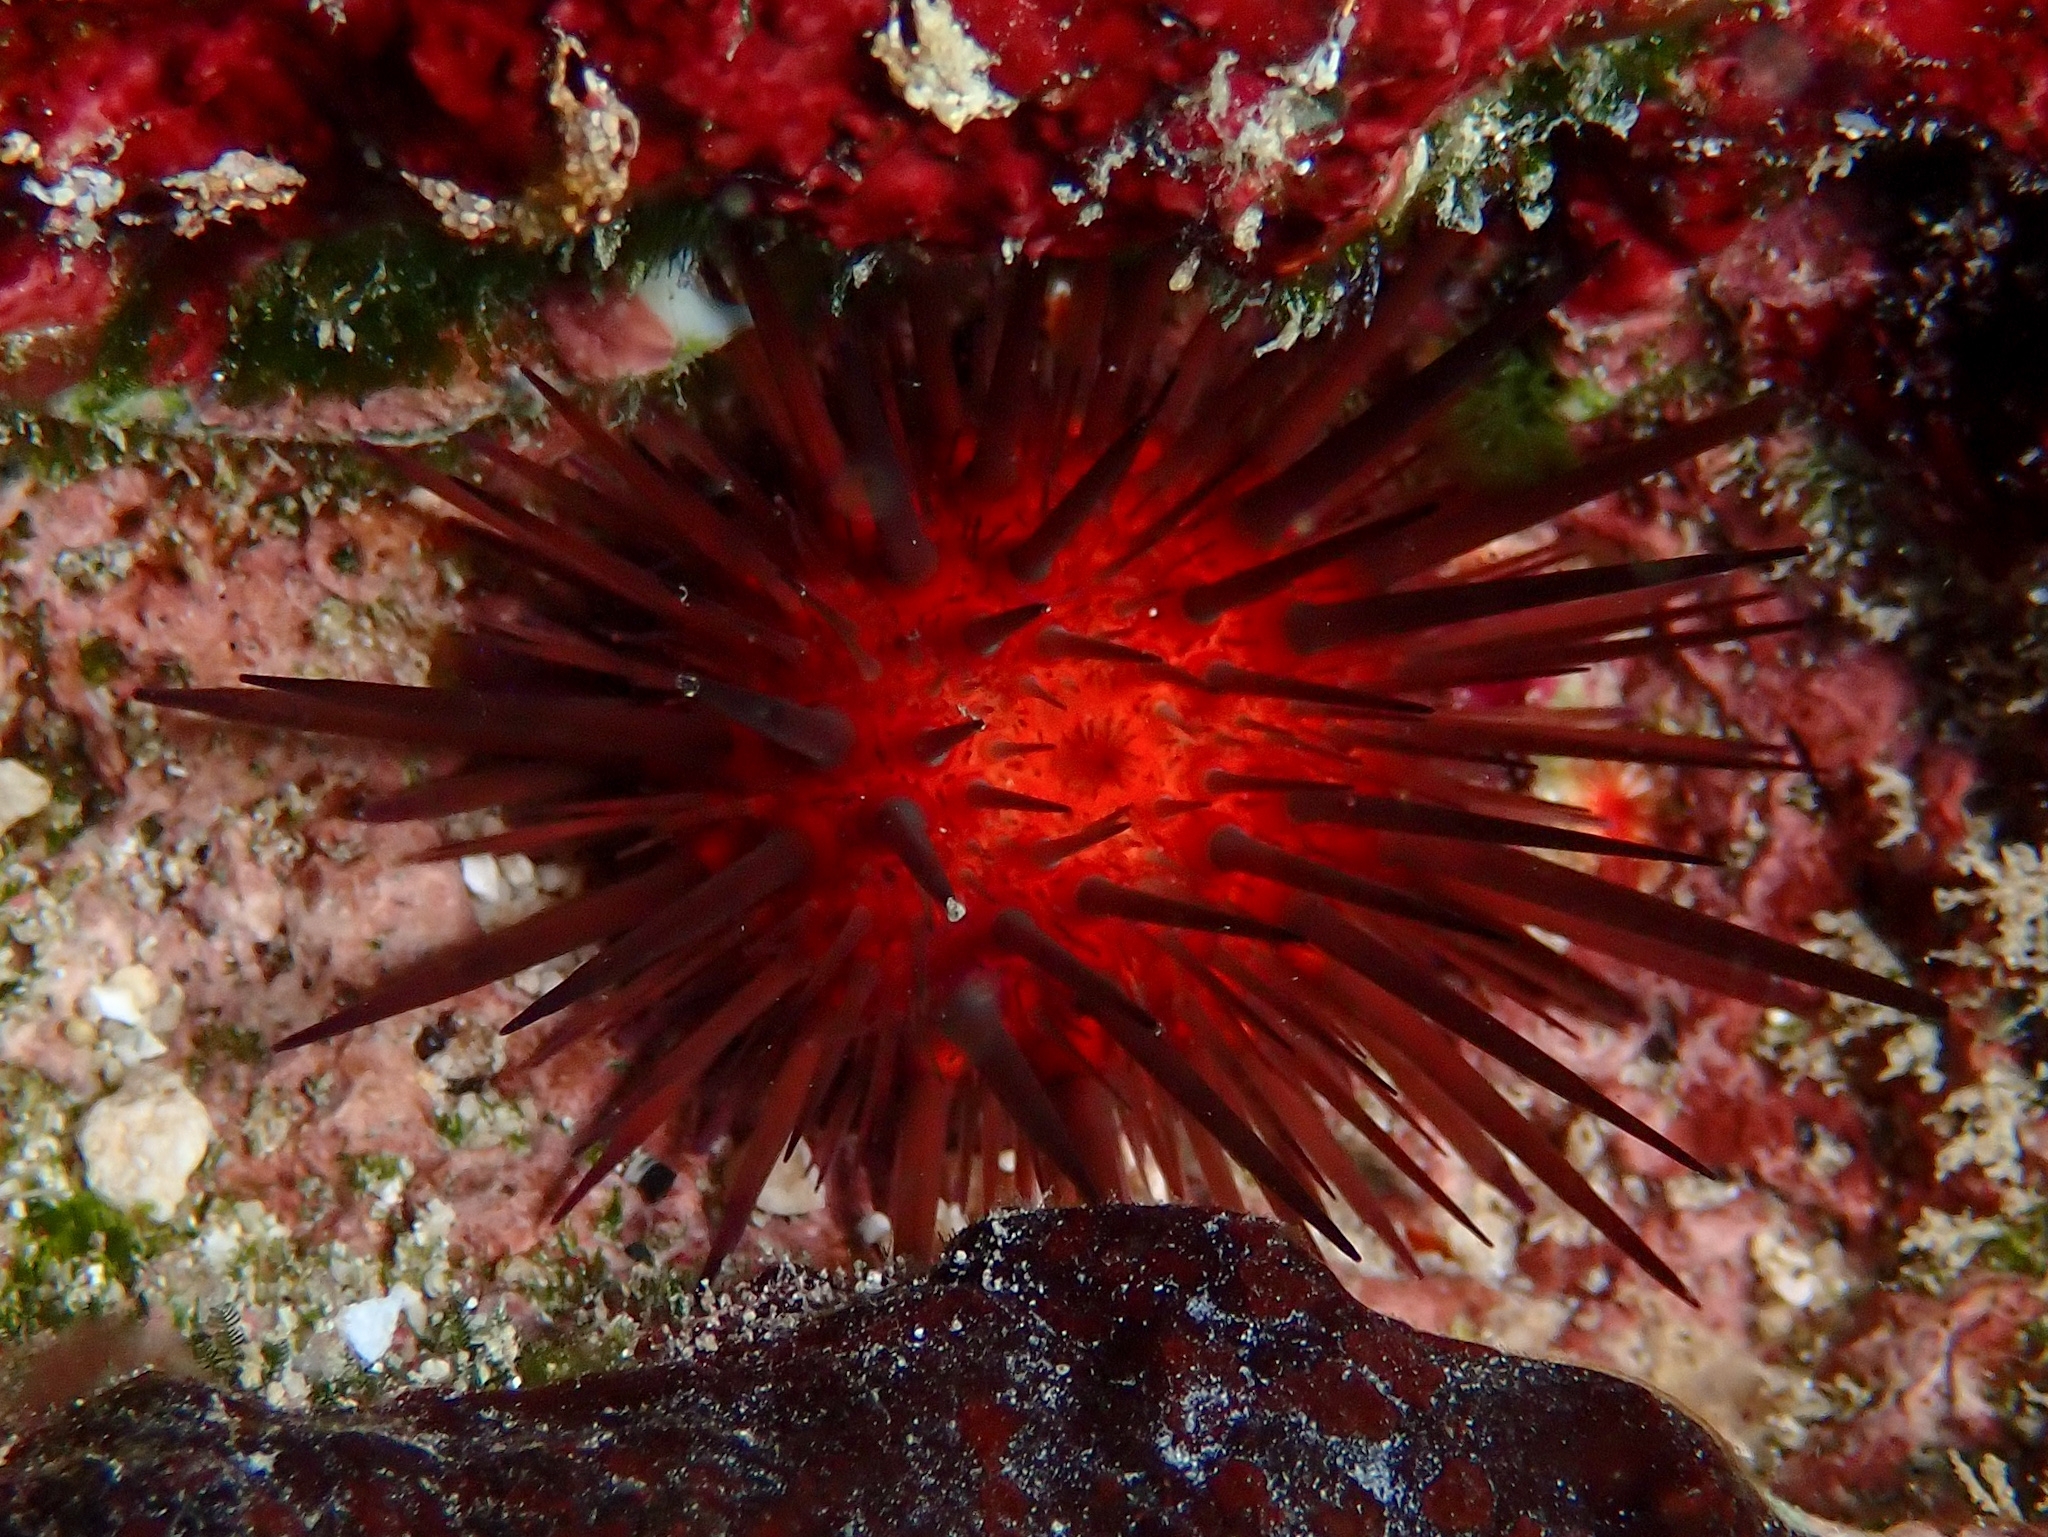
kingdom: Animalia
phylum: Echinodermata
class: Echinoidea
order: Camarodonta
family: Echinometridae
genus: Echinometra
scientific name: Echinometra lucunter
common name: Rock urchin
